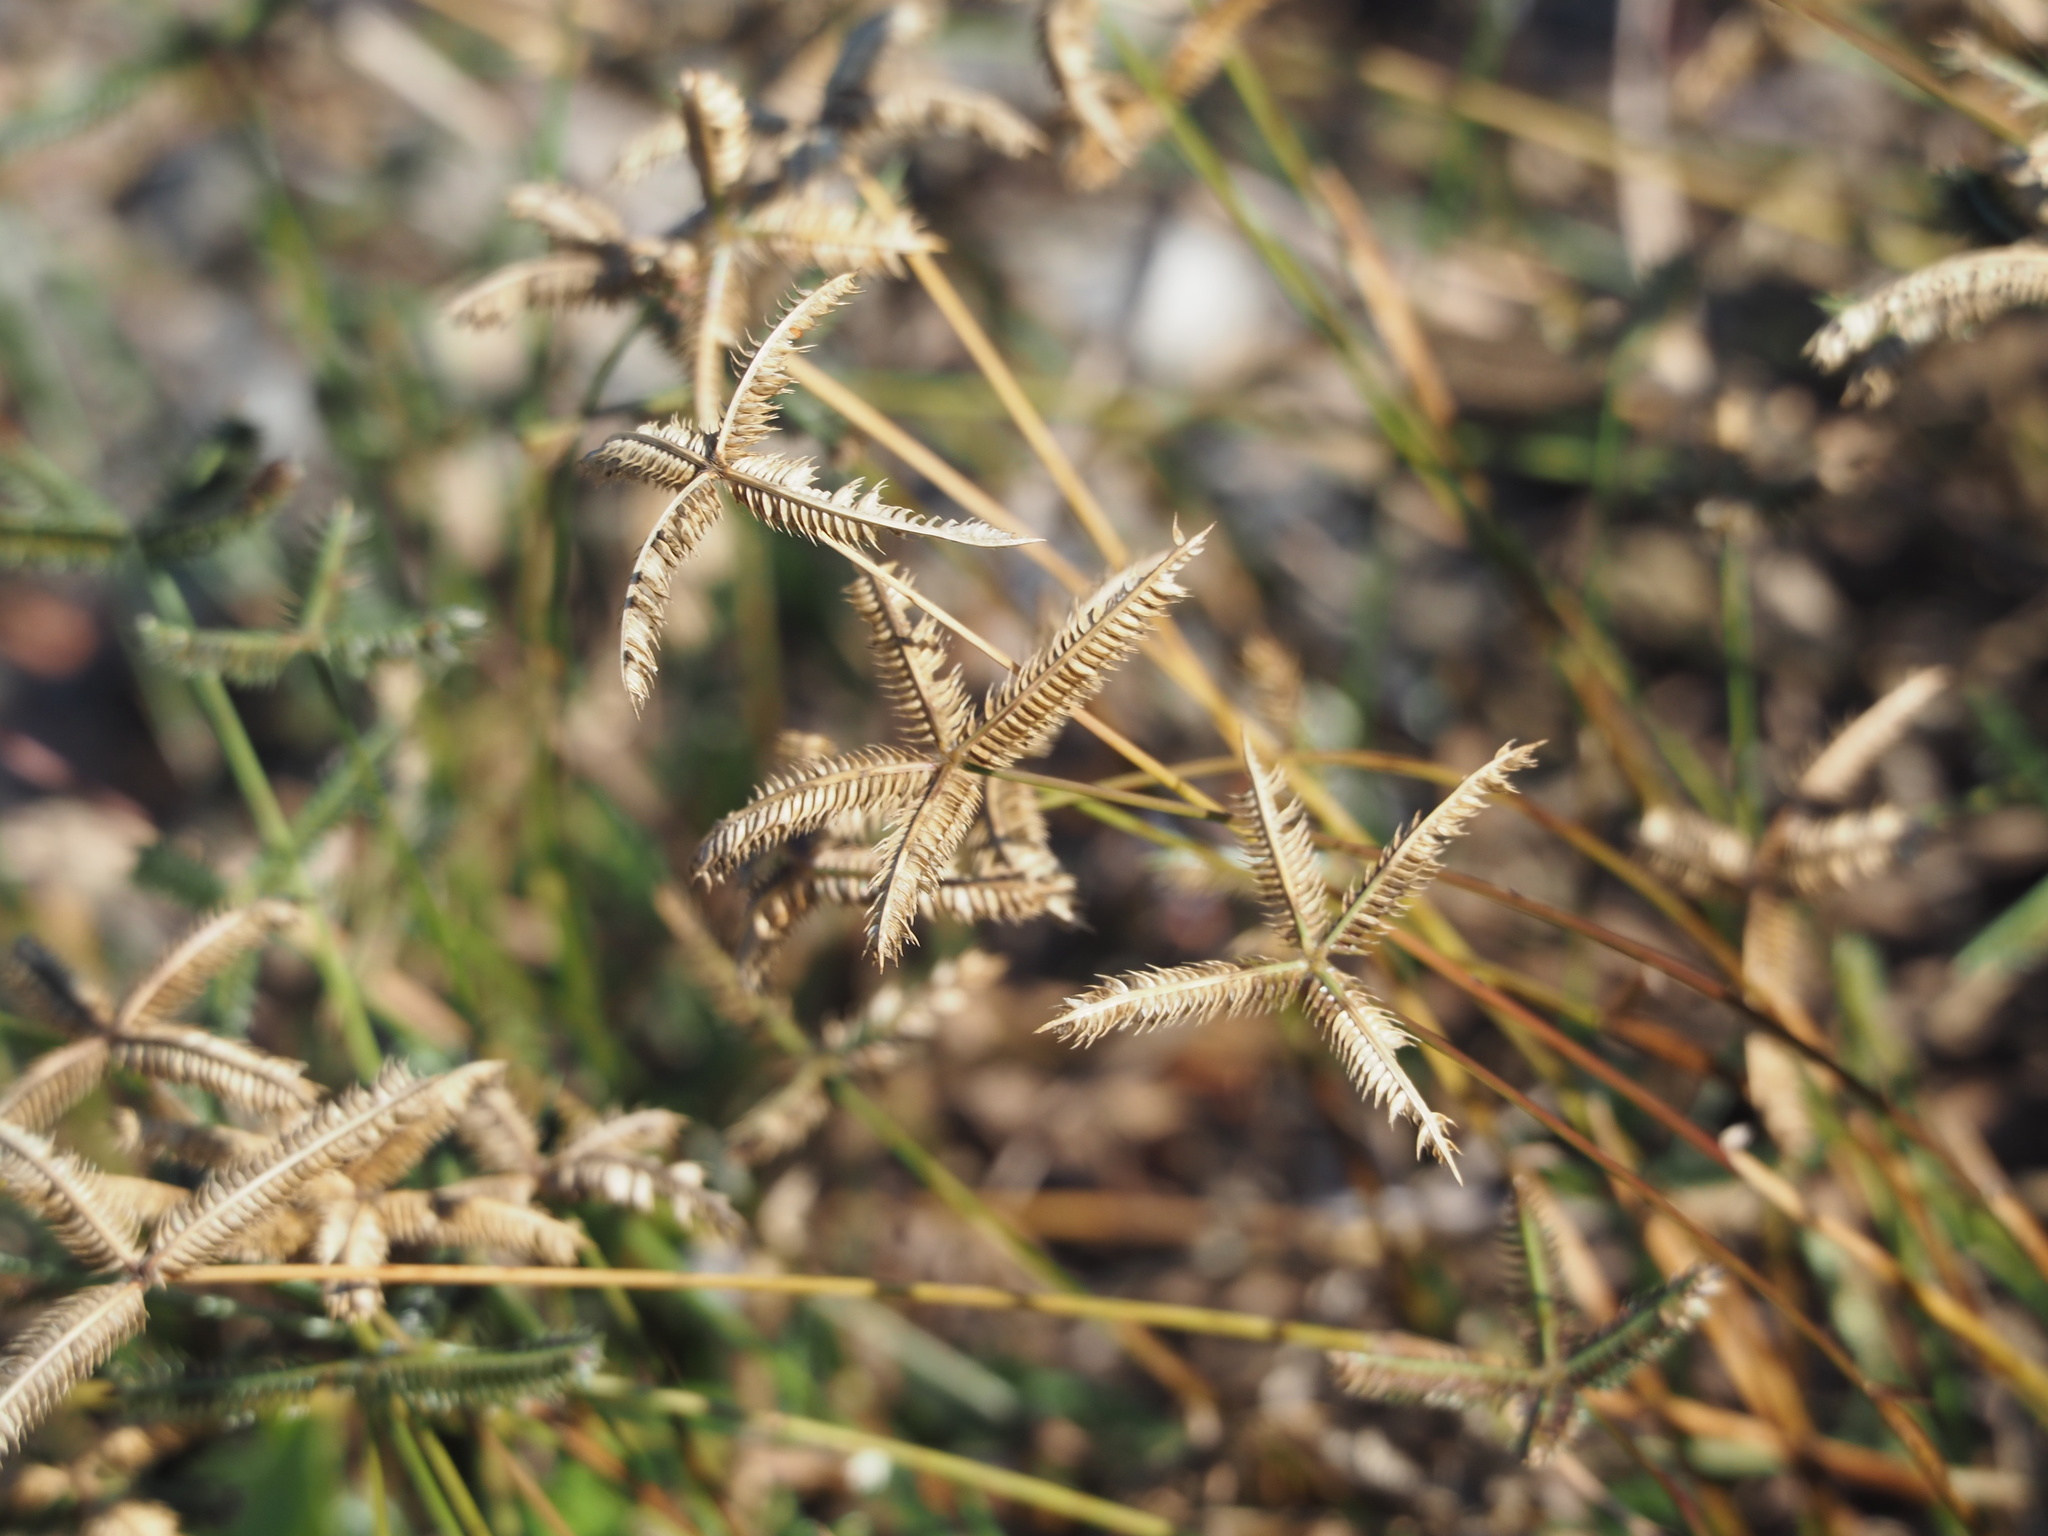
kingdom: Plantae
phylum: Tracheophyta
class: Liliopsida
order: Poales
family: Poaceae
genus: Dactyloctenium
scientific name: Dactyloctenium aegyptium
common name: Egyptian grass
